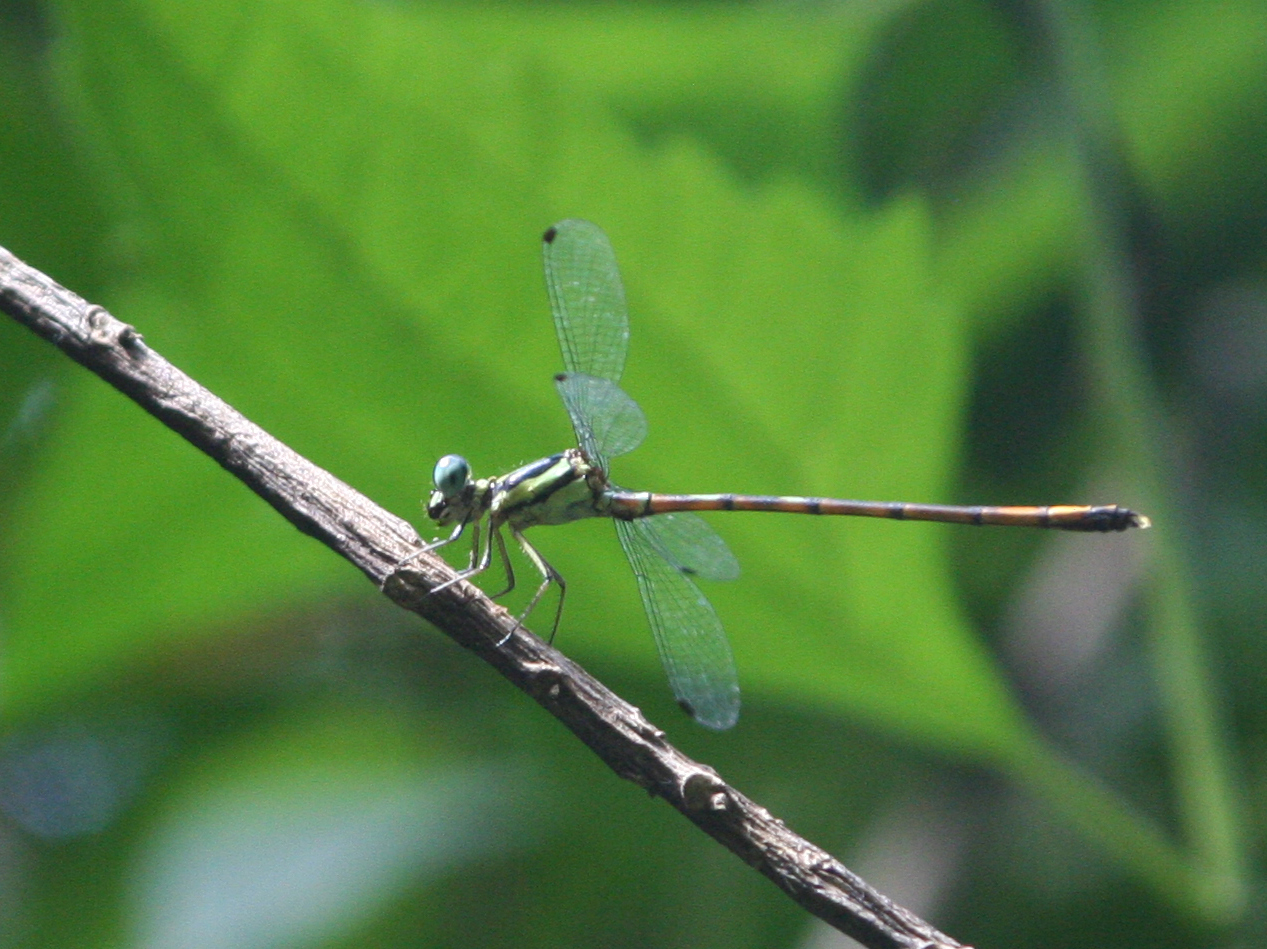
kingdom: Animalia
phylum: Arthropoda
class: Insecta
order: Odonata
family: Philosinidae
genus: Rhinagrion
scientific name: Rhinagrion viridatum
